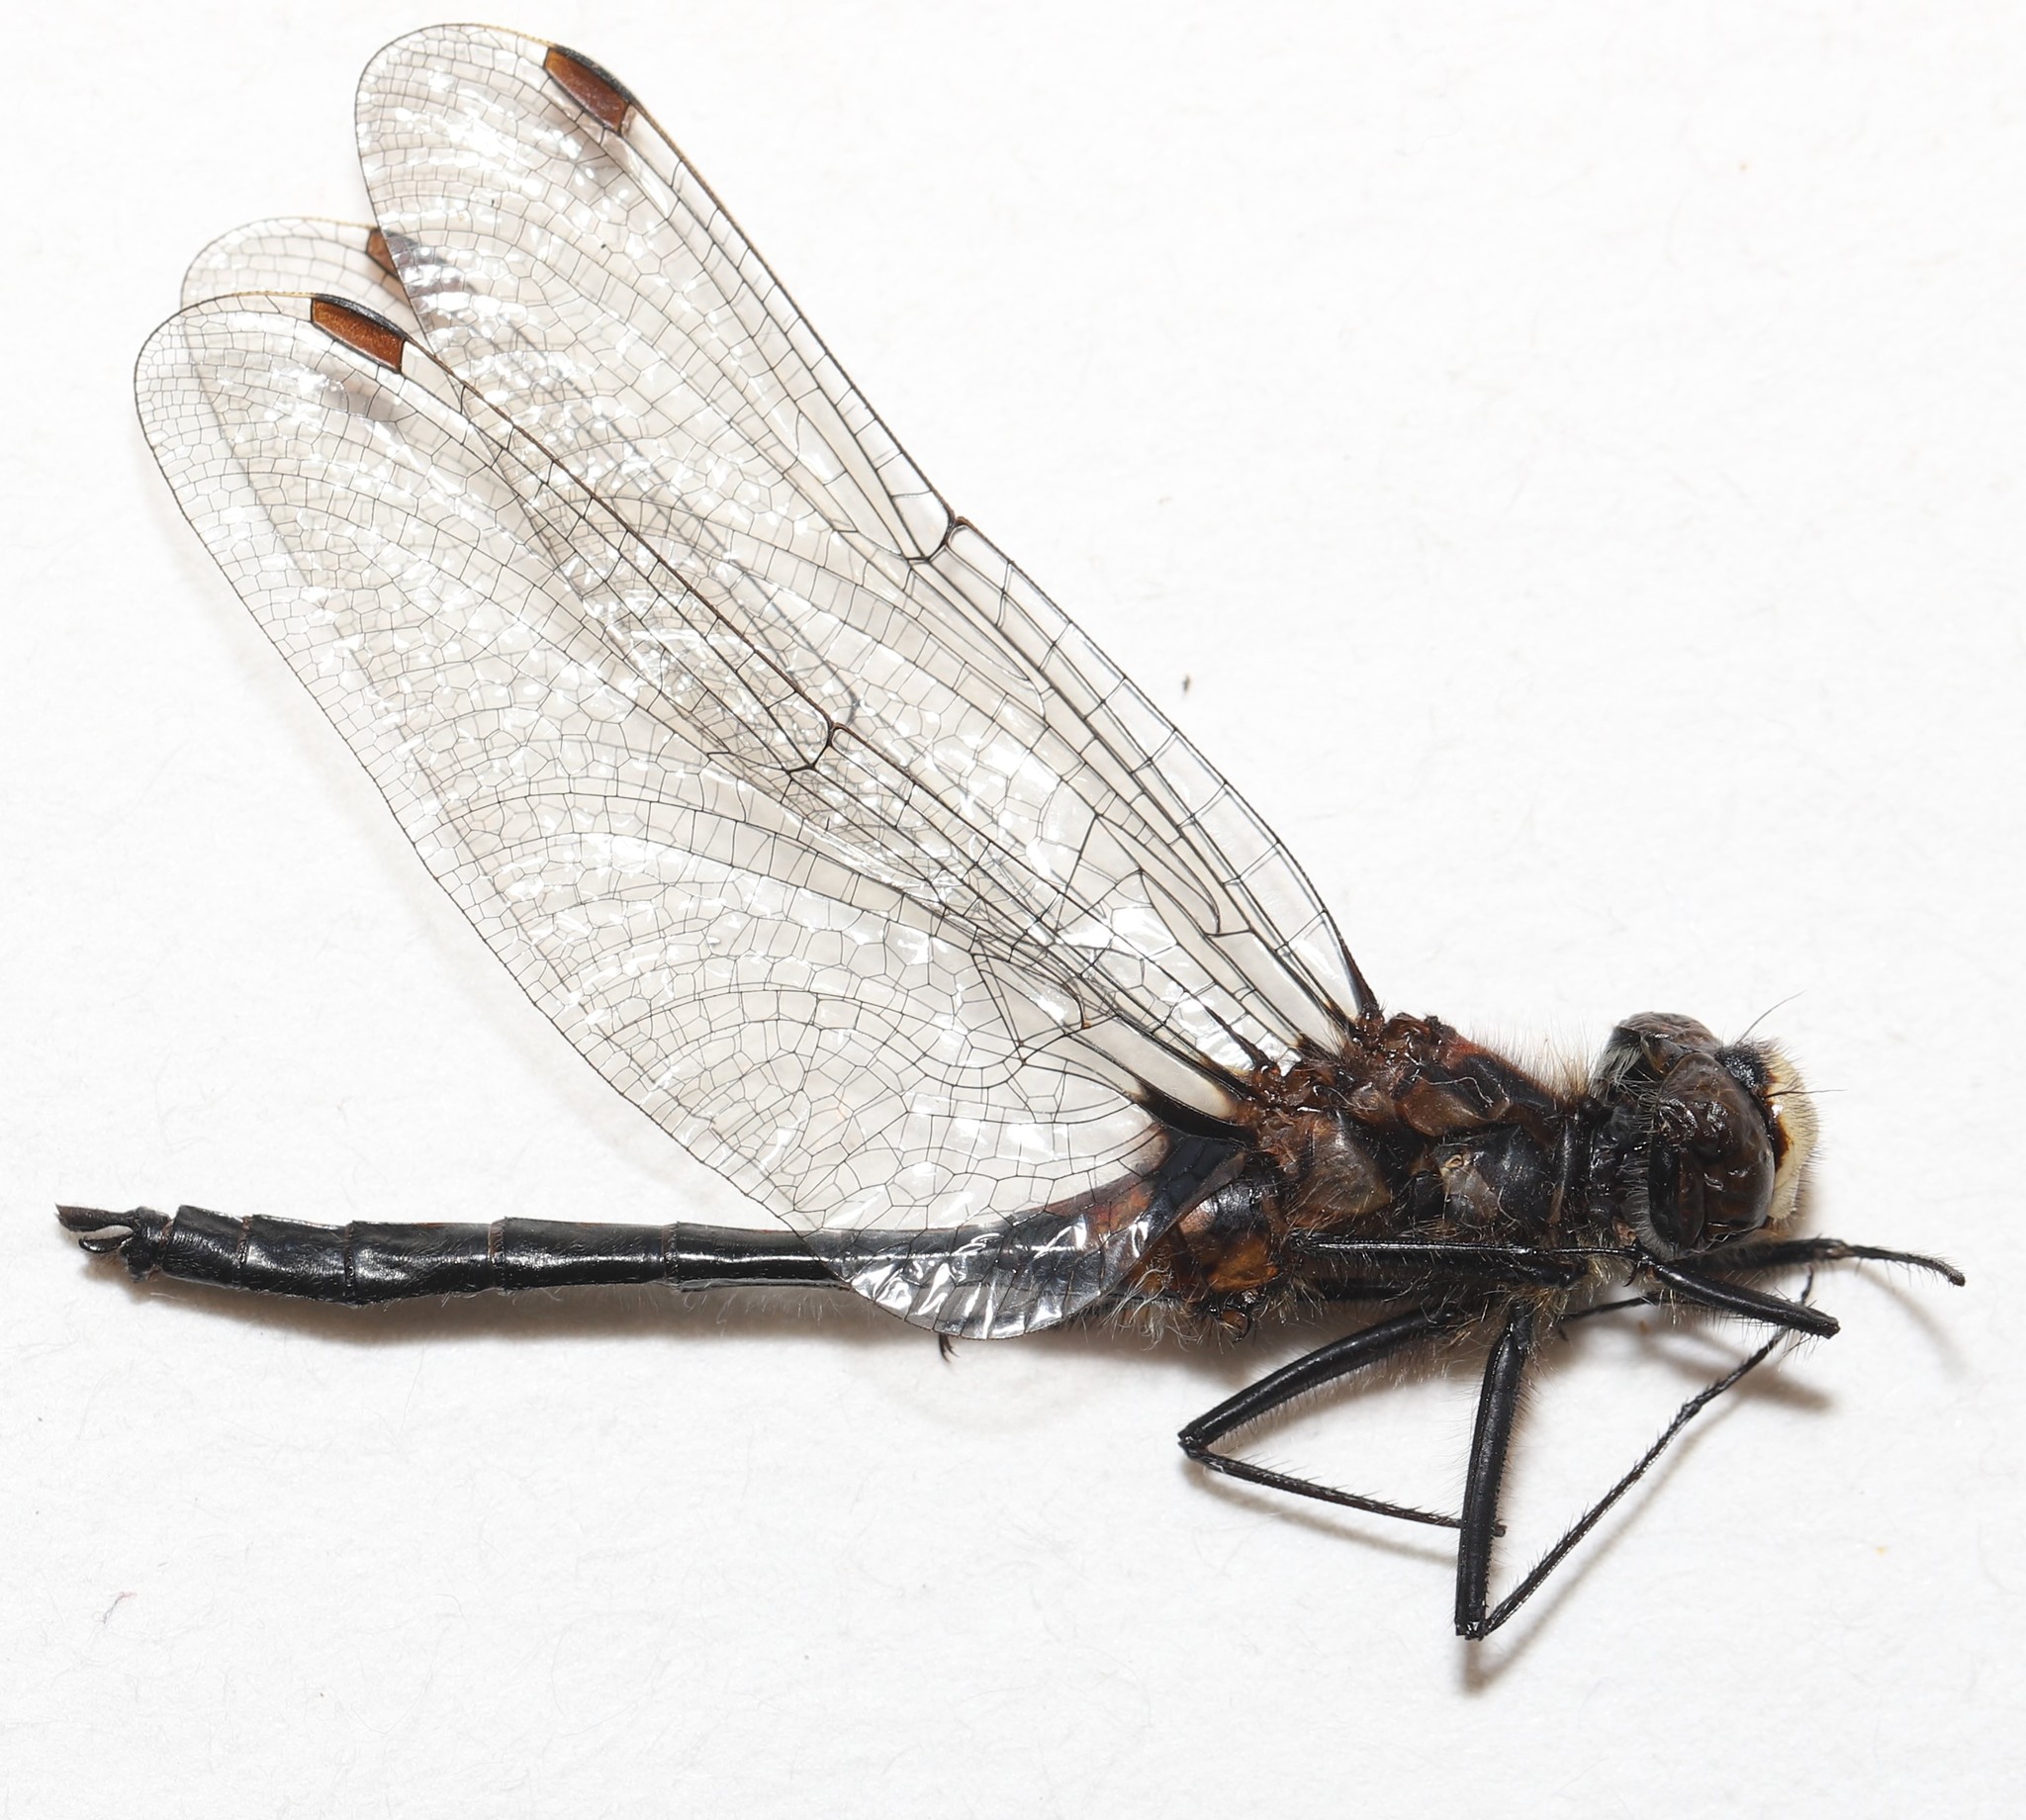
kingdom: Animalia
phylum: Arthropoda
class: Insecta
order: Odonata
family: Libellulidae
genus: Leucorrhinia
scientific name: Leucorrhinia proxima
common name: Belted whiteface
